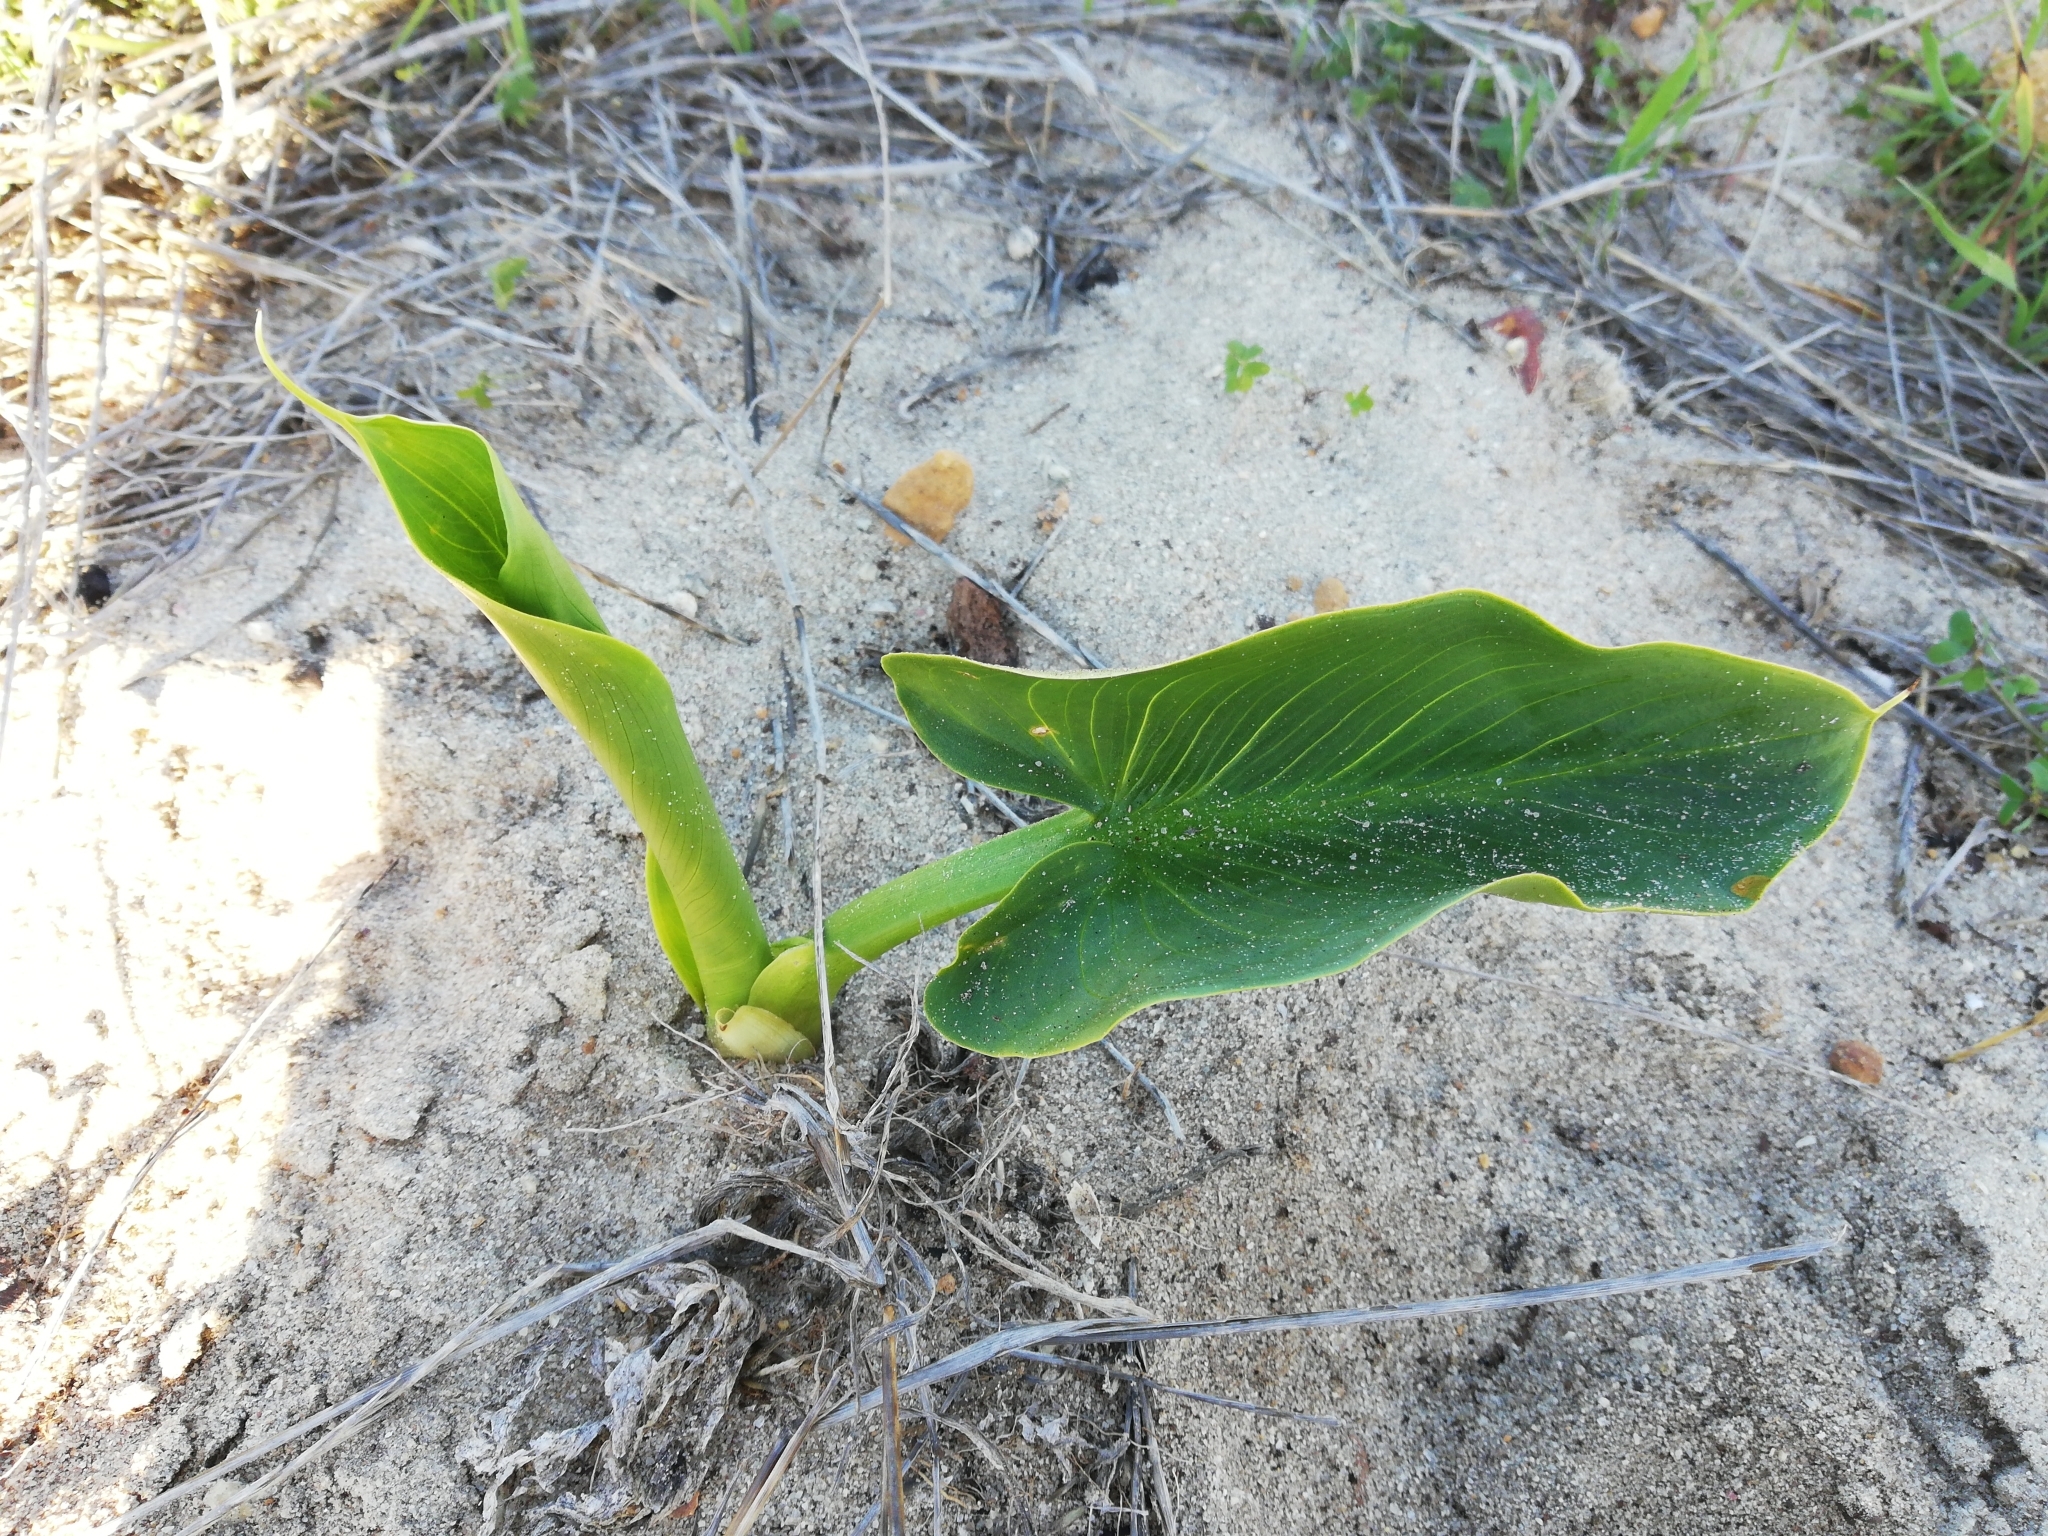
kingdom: Plantae
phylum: Tracheophyta
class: Liliopsida
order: Alismatales
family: Araceae
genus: Zantedeschia
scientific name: Zantedeschia aethiopica
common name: Altar-lily
